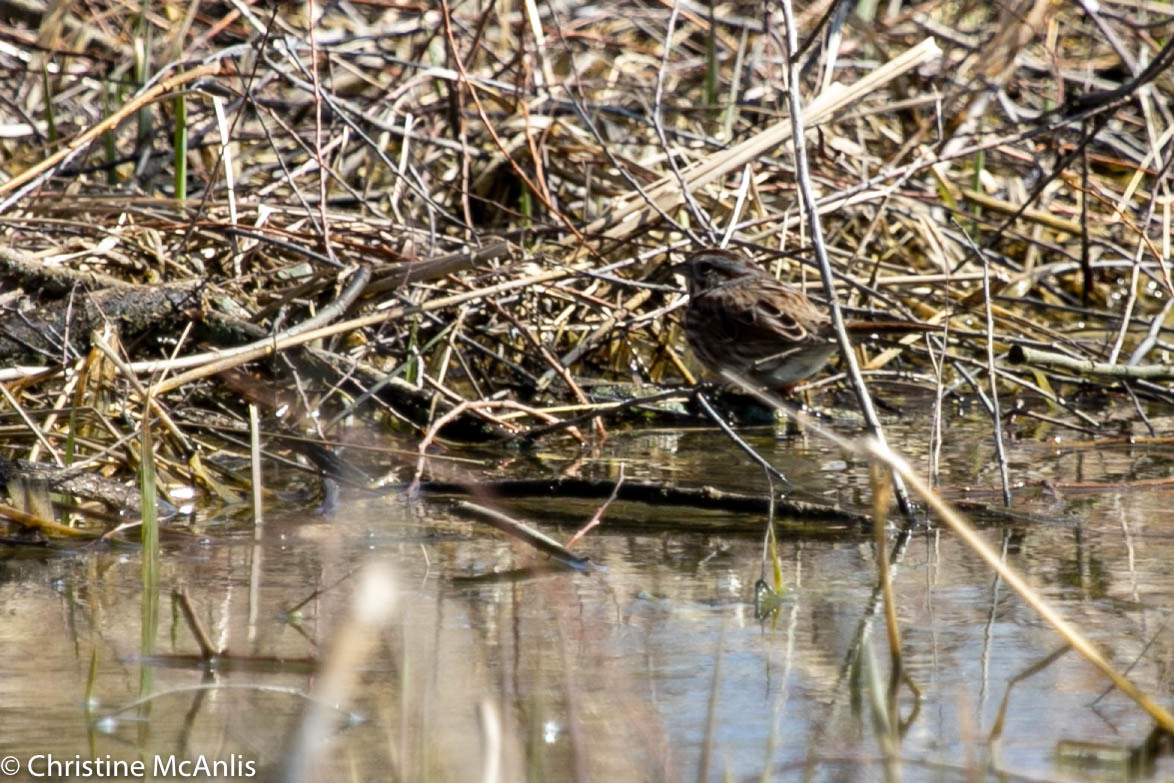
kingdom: Animalia
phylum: Chordata
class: Aves
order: Passeriformes
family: Passerellidae
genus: Melospiza
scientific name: Melospiza melodia
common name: Song sparrow
